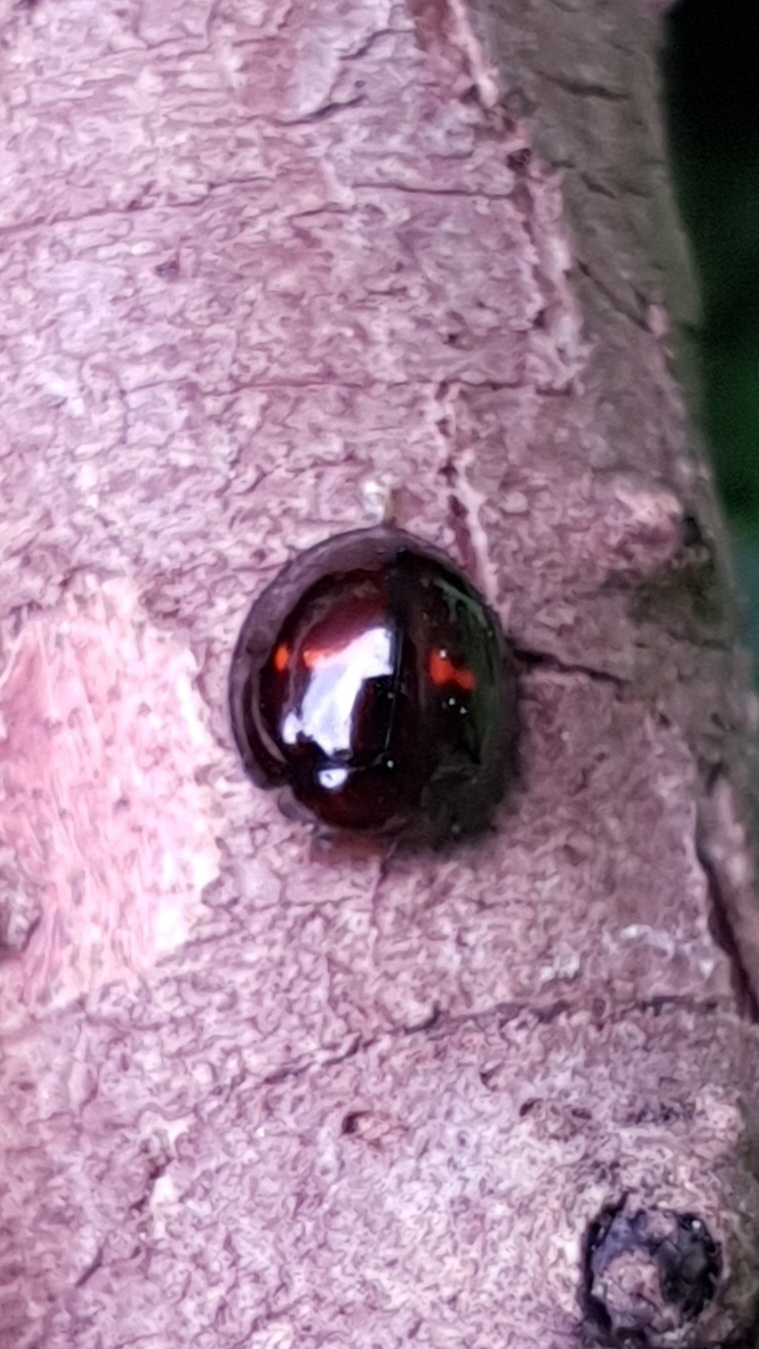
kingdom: Animalia
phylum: Arthropoda
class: Insecta
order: Coleoptera
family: Coccinellidae
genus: Chilocorus
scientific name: Chilocorus bipustulatus
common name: Heather ladybird
